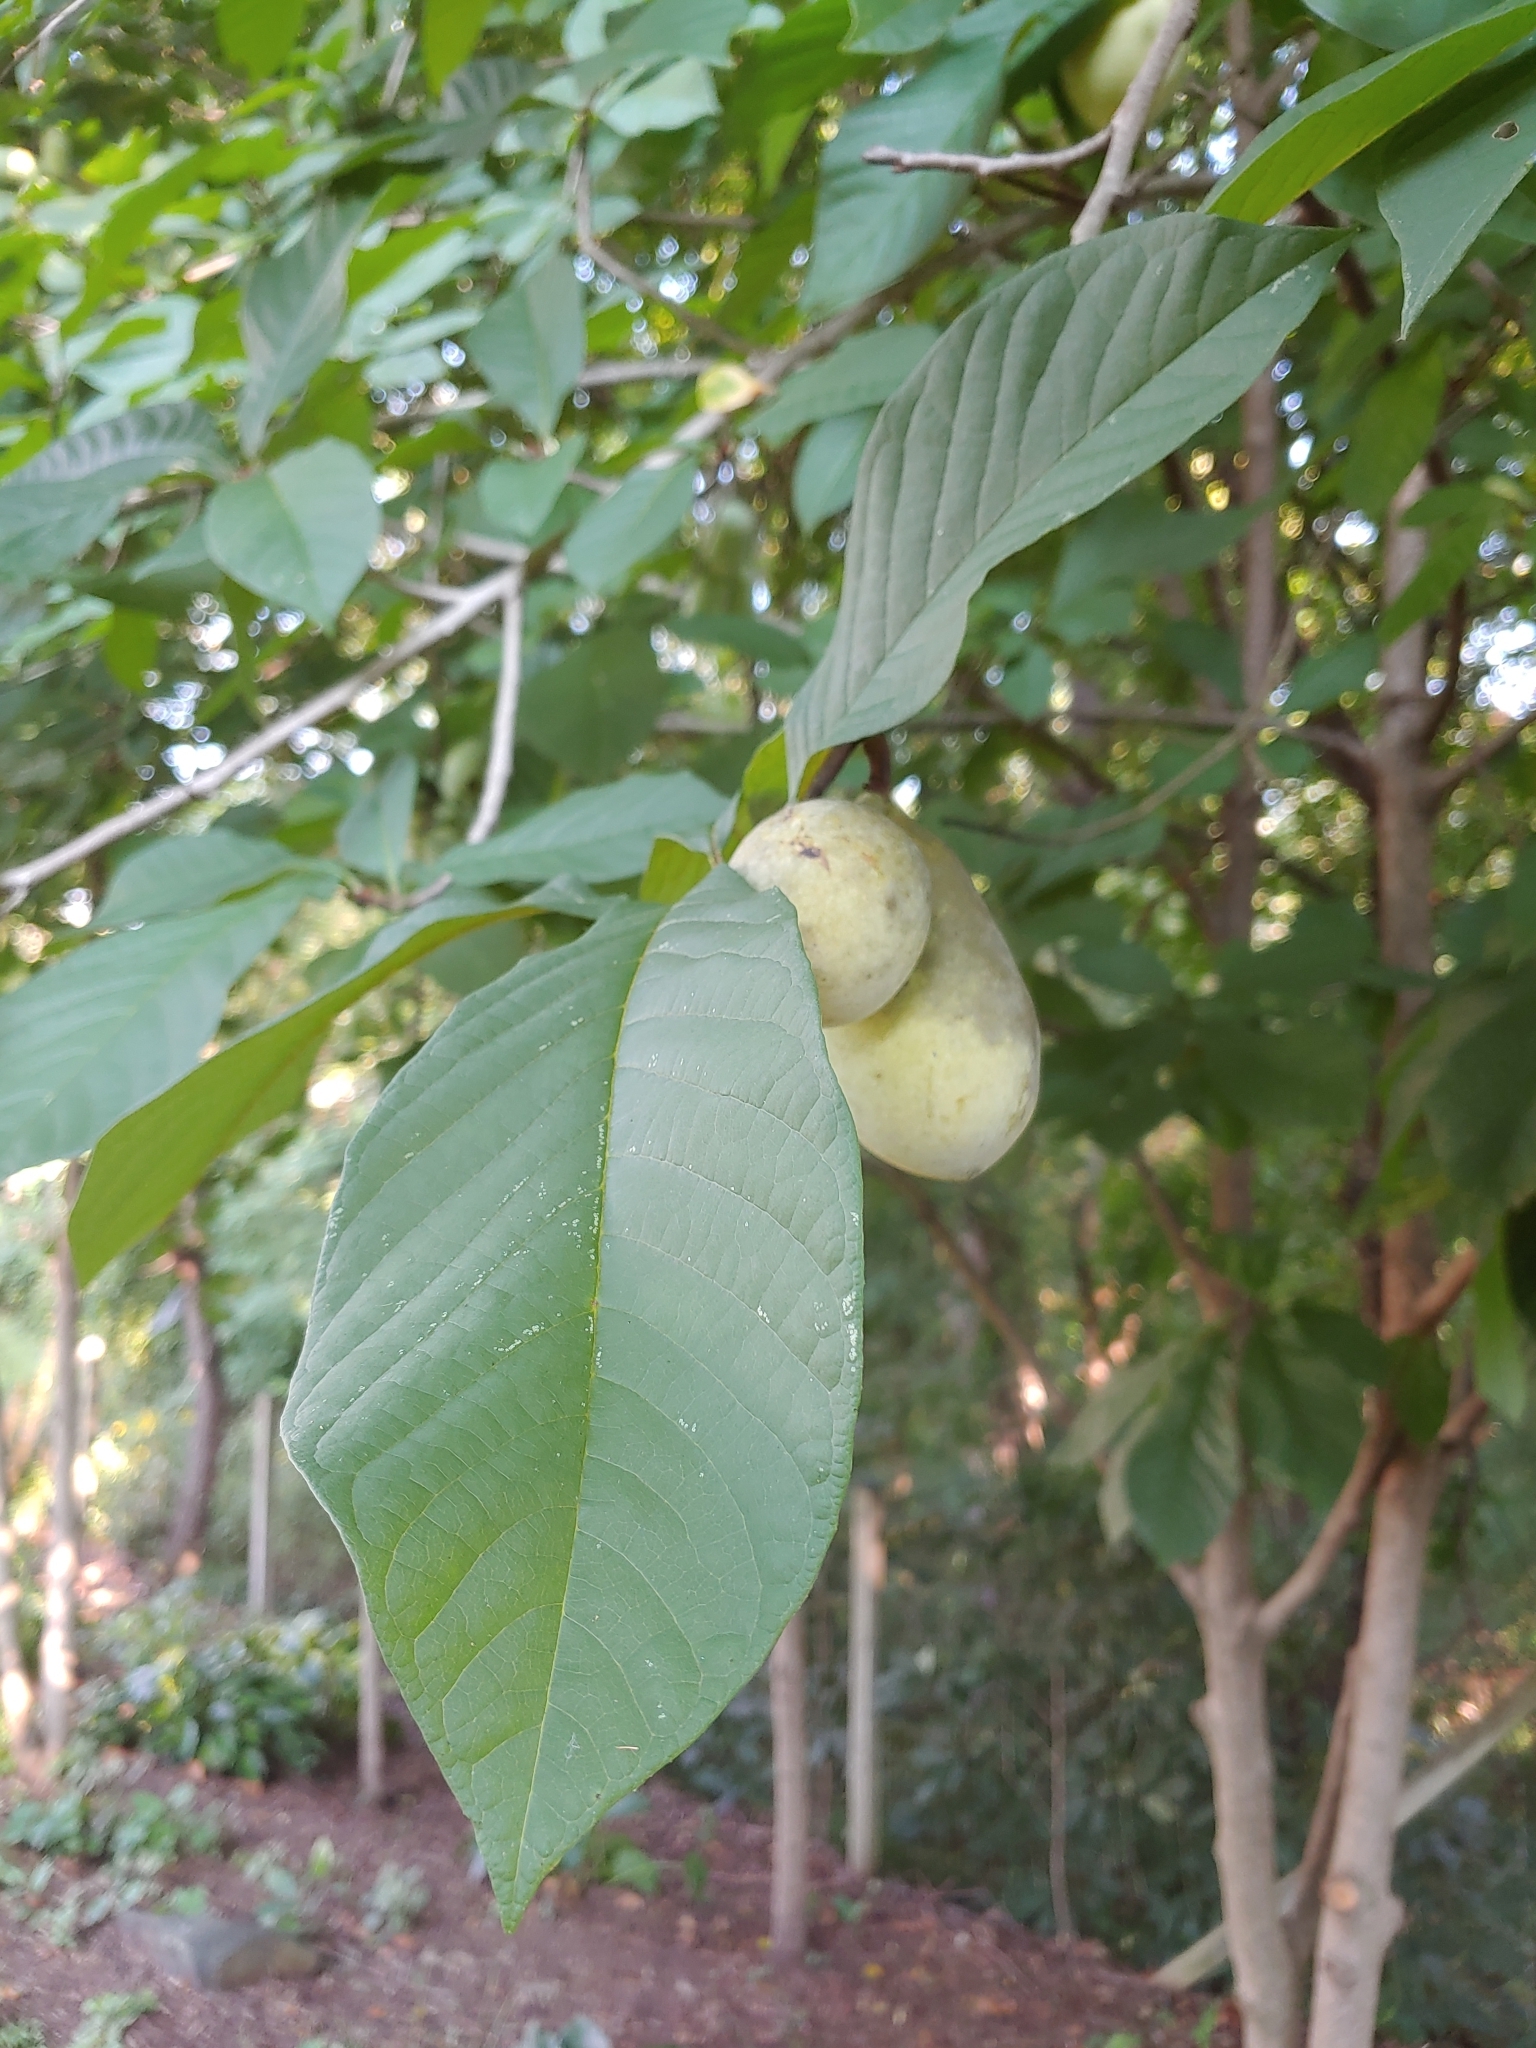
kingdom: Plantae
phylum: Tracheophyta
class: Magnoliopsida
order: Magnoliales
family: Annonaceae
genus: Asimina
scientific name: Asimina triloba
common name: Dog-banana
